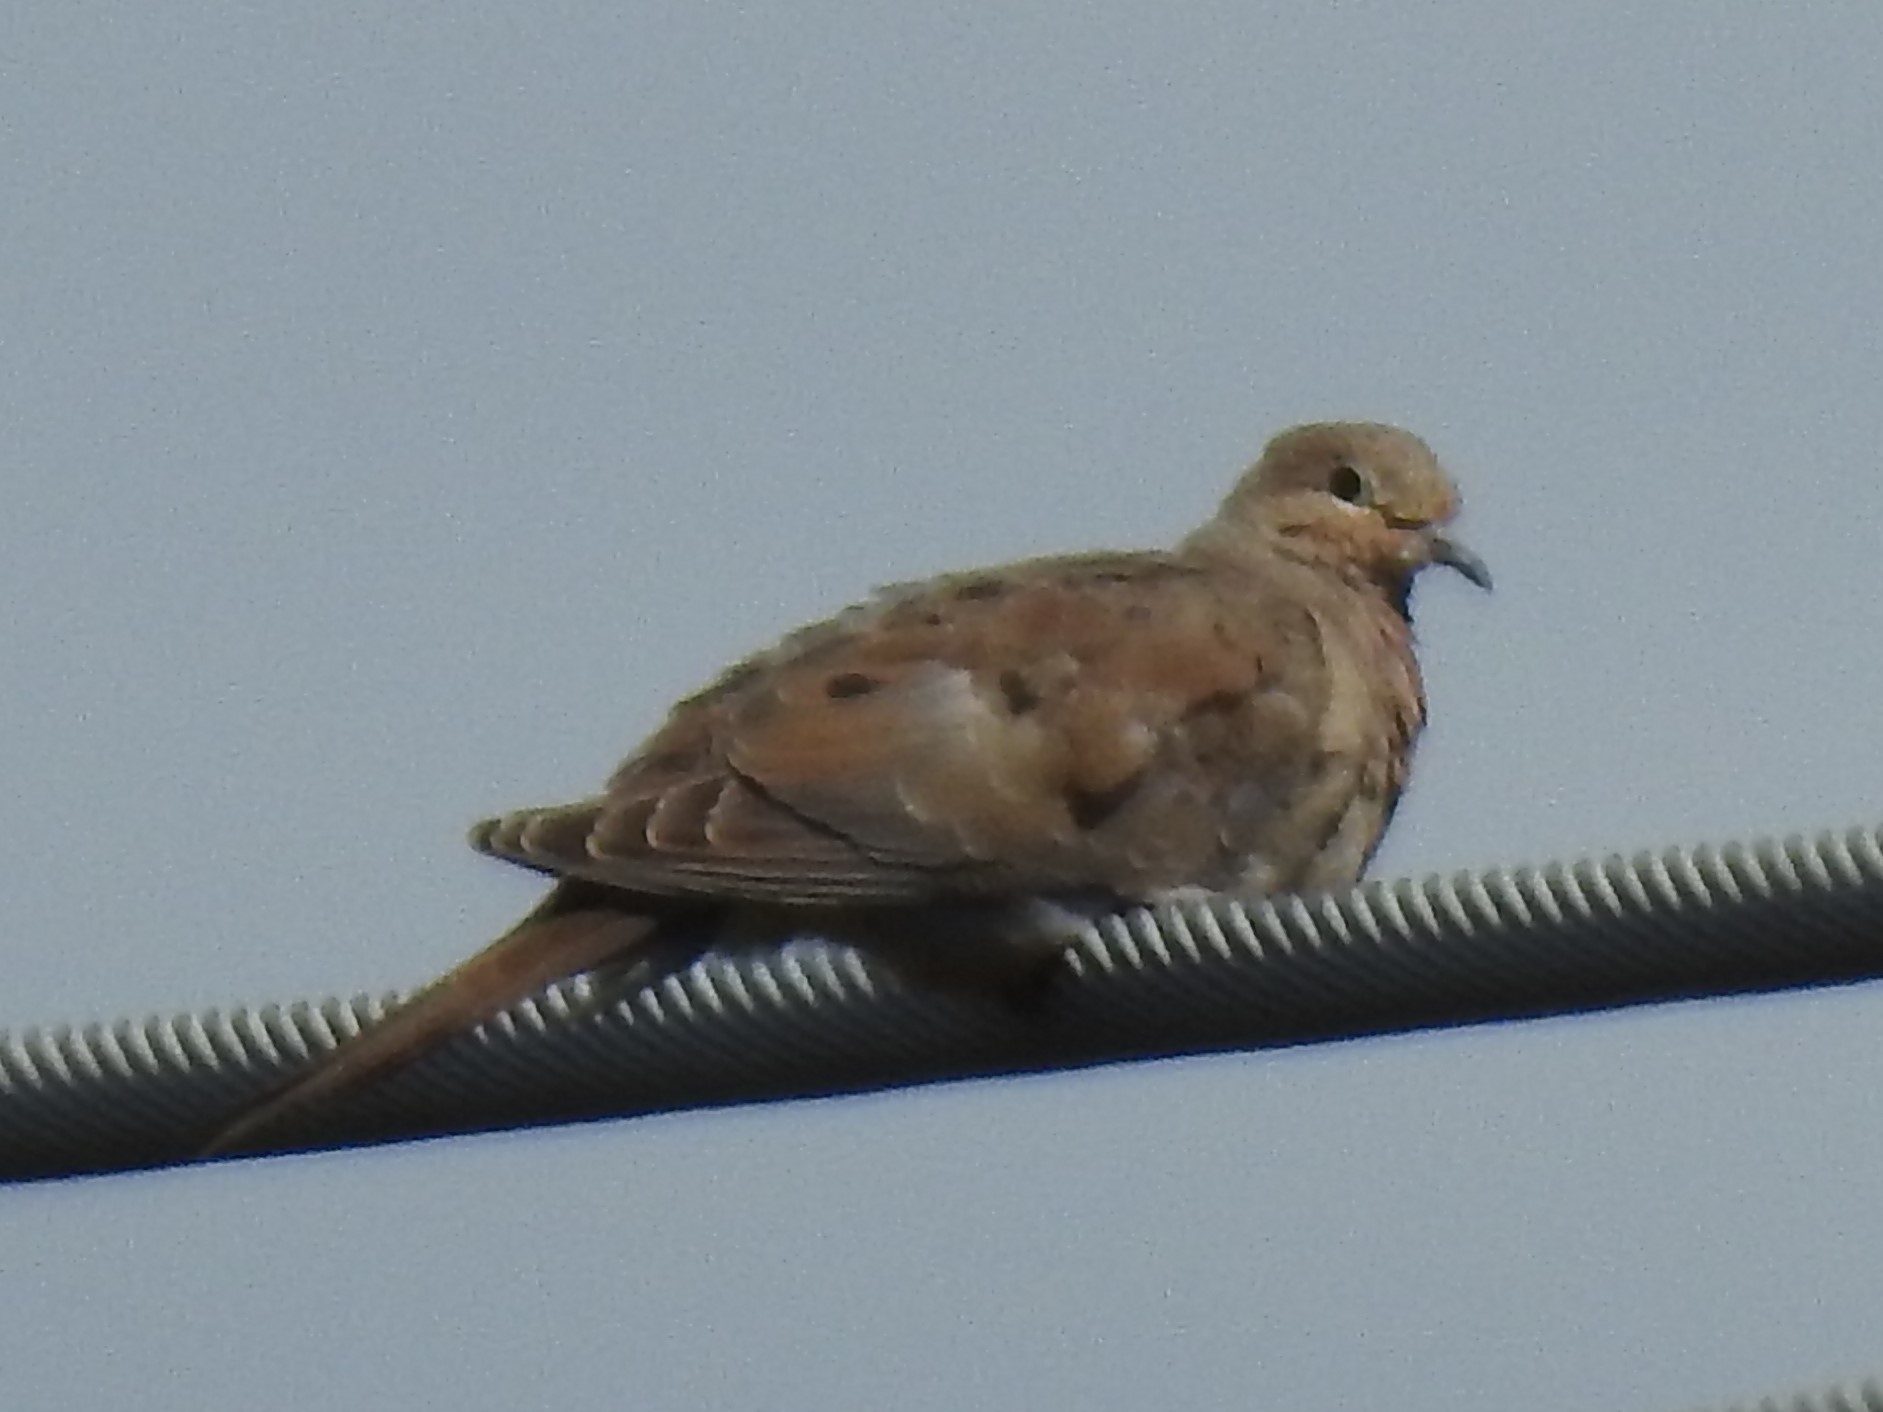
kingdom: Animalia
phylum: Chordata
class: Aves
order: Columbiformes
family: Columbidae
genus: Zenaida
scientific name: Zenaida macroura
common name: Mourning dove
